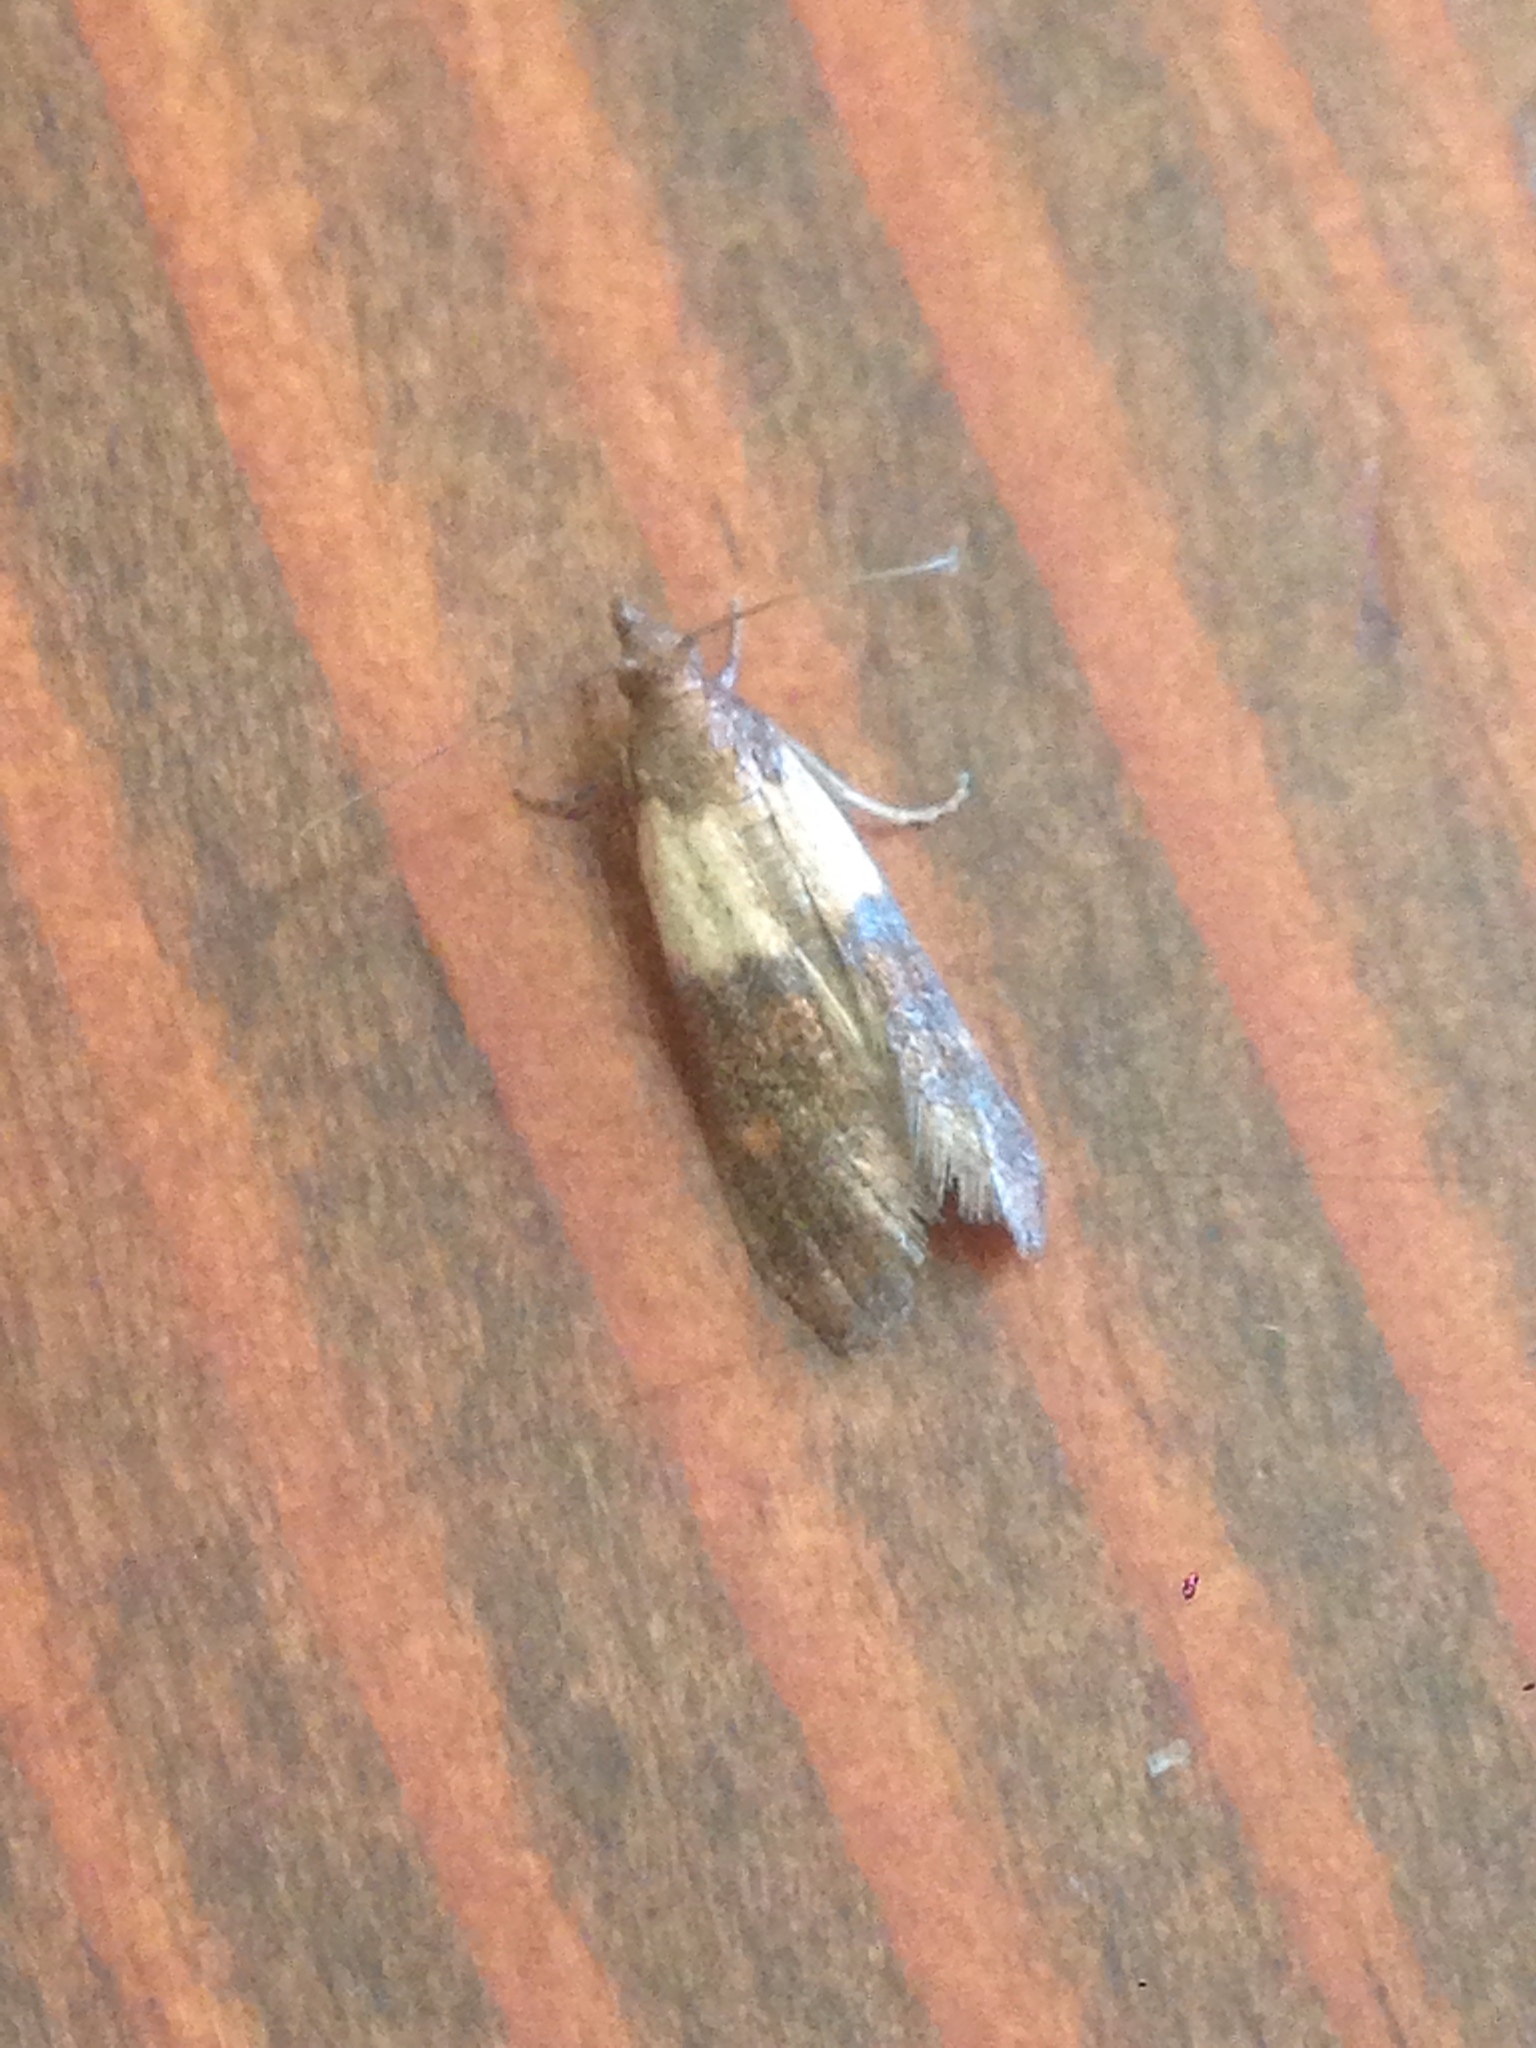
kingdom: Animalia
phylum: Arthropoda
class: Insecta
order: Lepidoptera
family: Pyralidae
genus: Plodia
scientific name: Plodia interpunctella
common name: Indian meal moth
